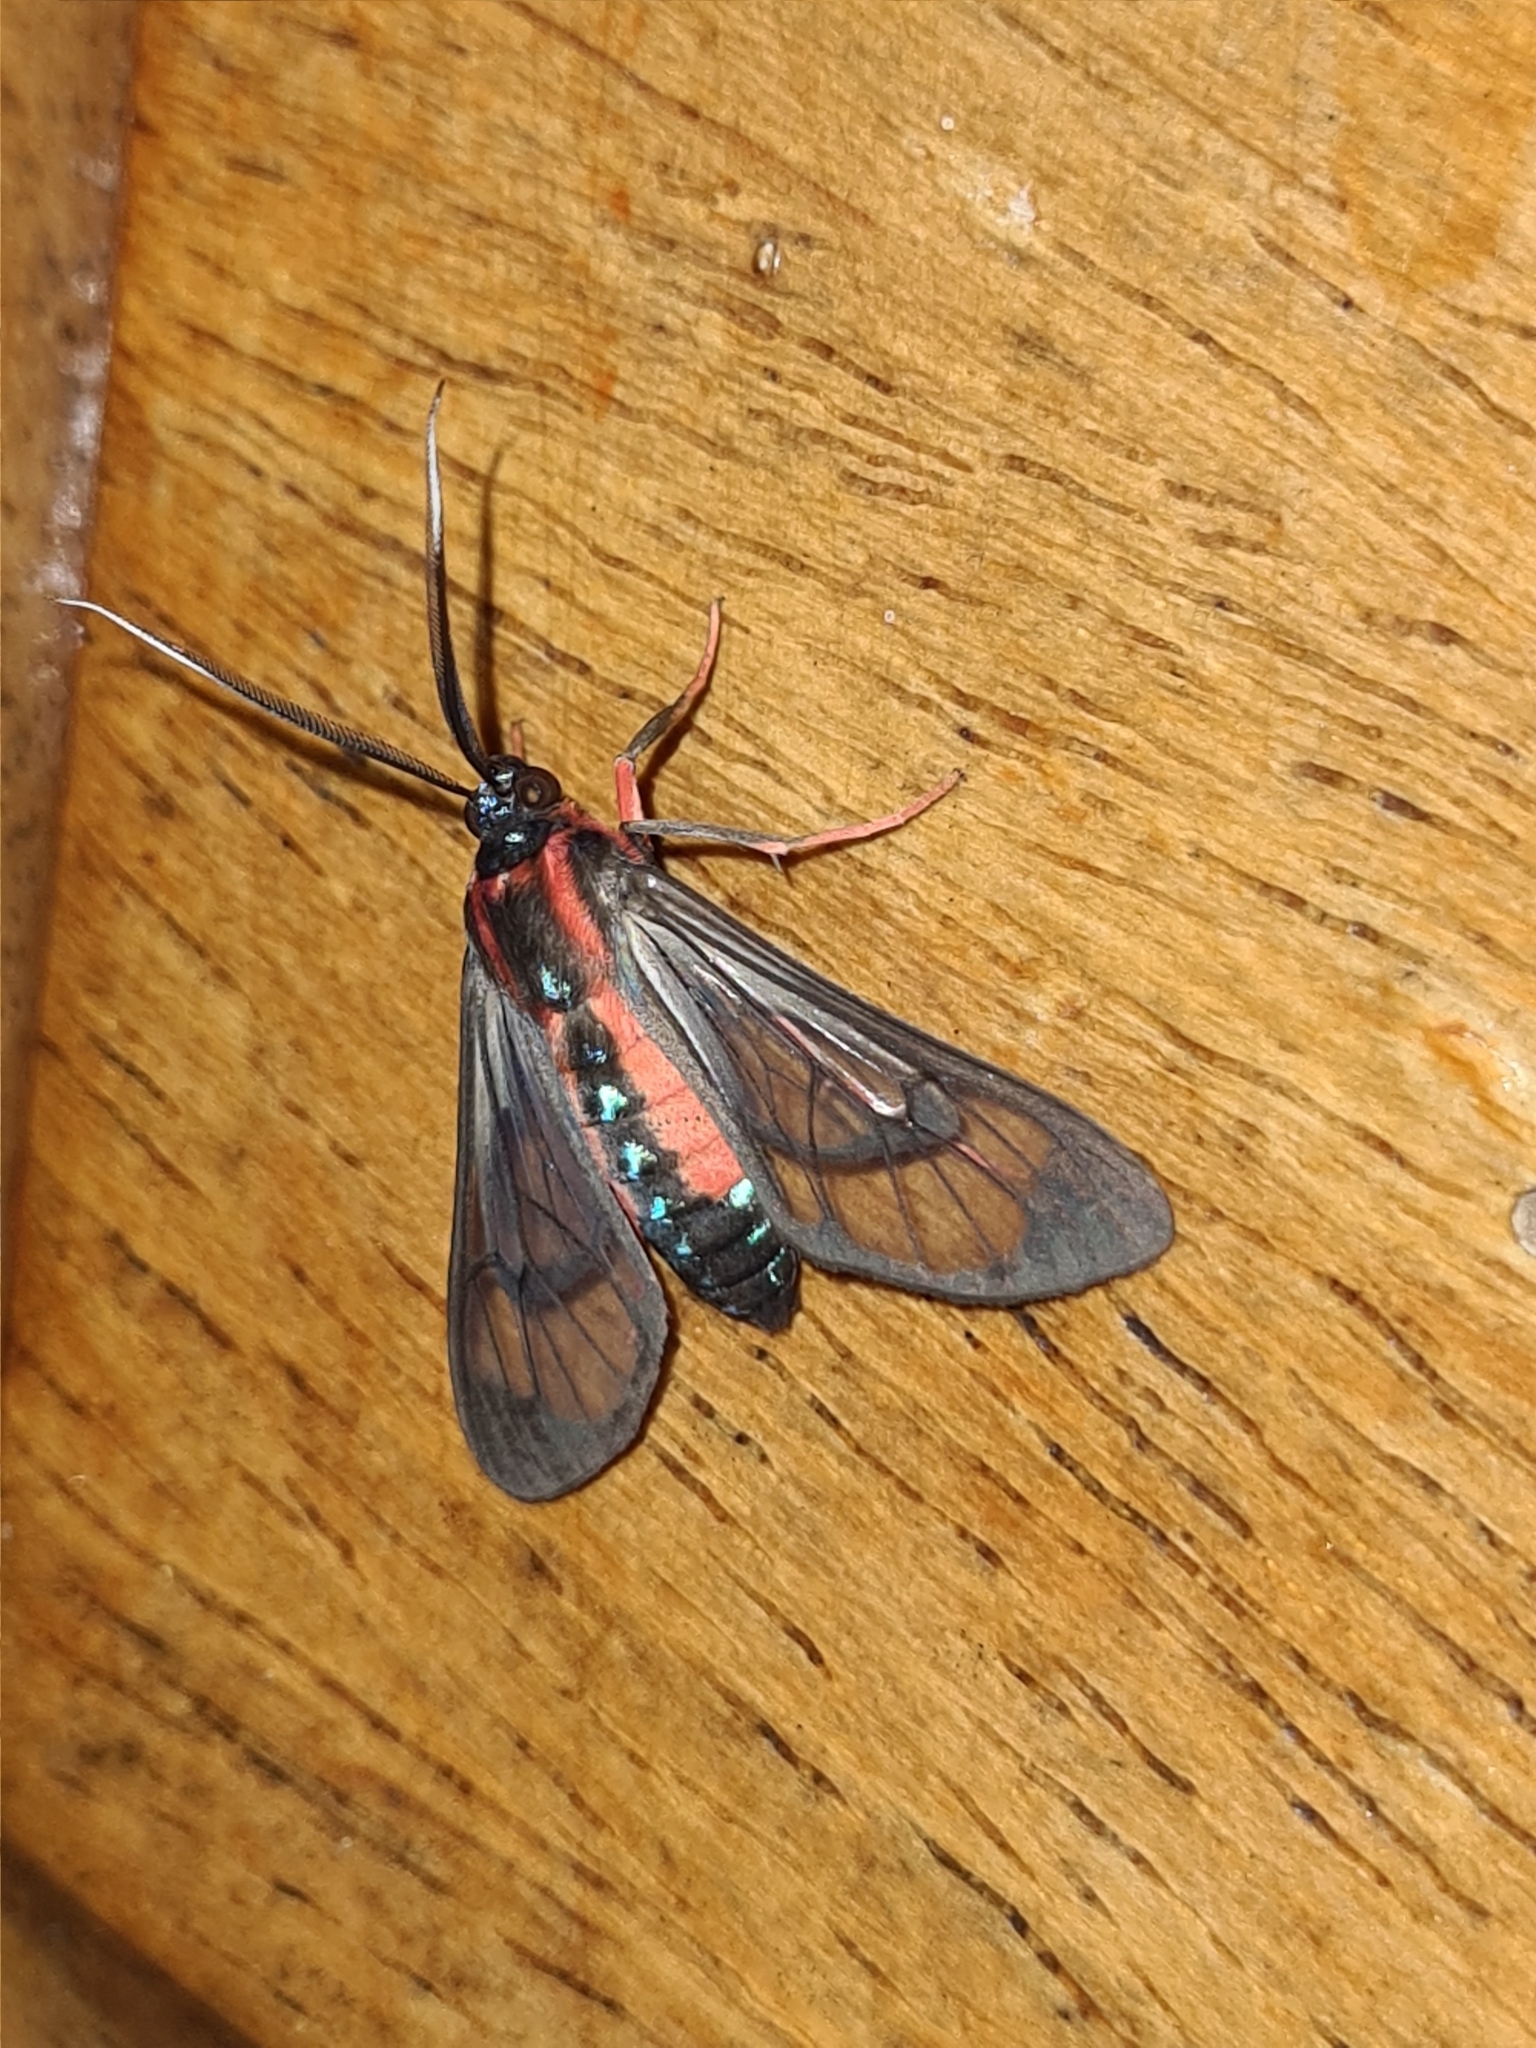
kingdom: Animalia
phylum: Arthropoda
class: Insecta
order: Lepidoptera
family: Erebidae
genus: Cosmosoma
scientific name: Cosmosoma auge
